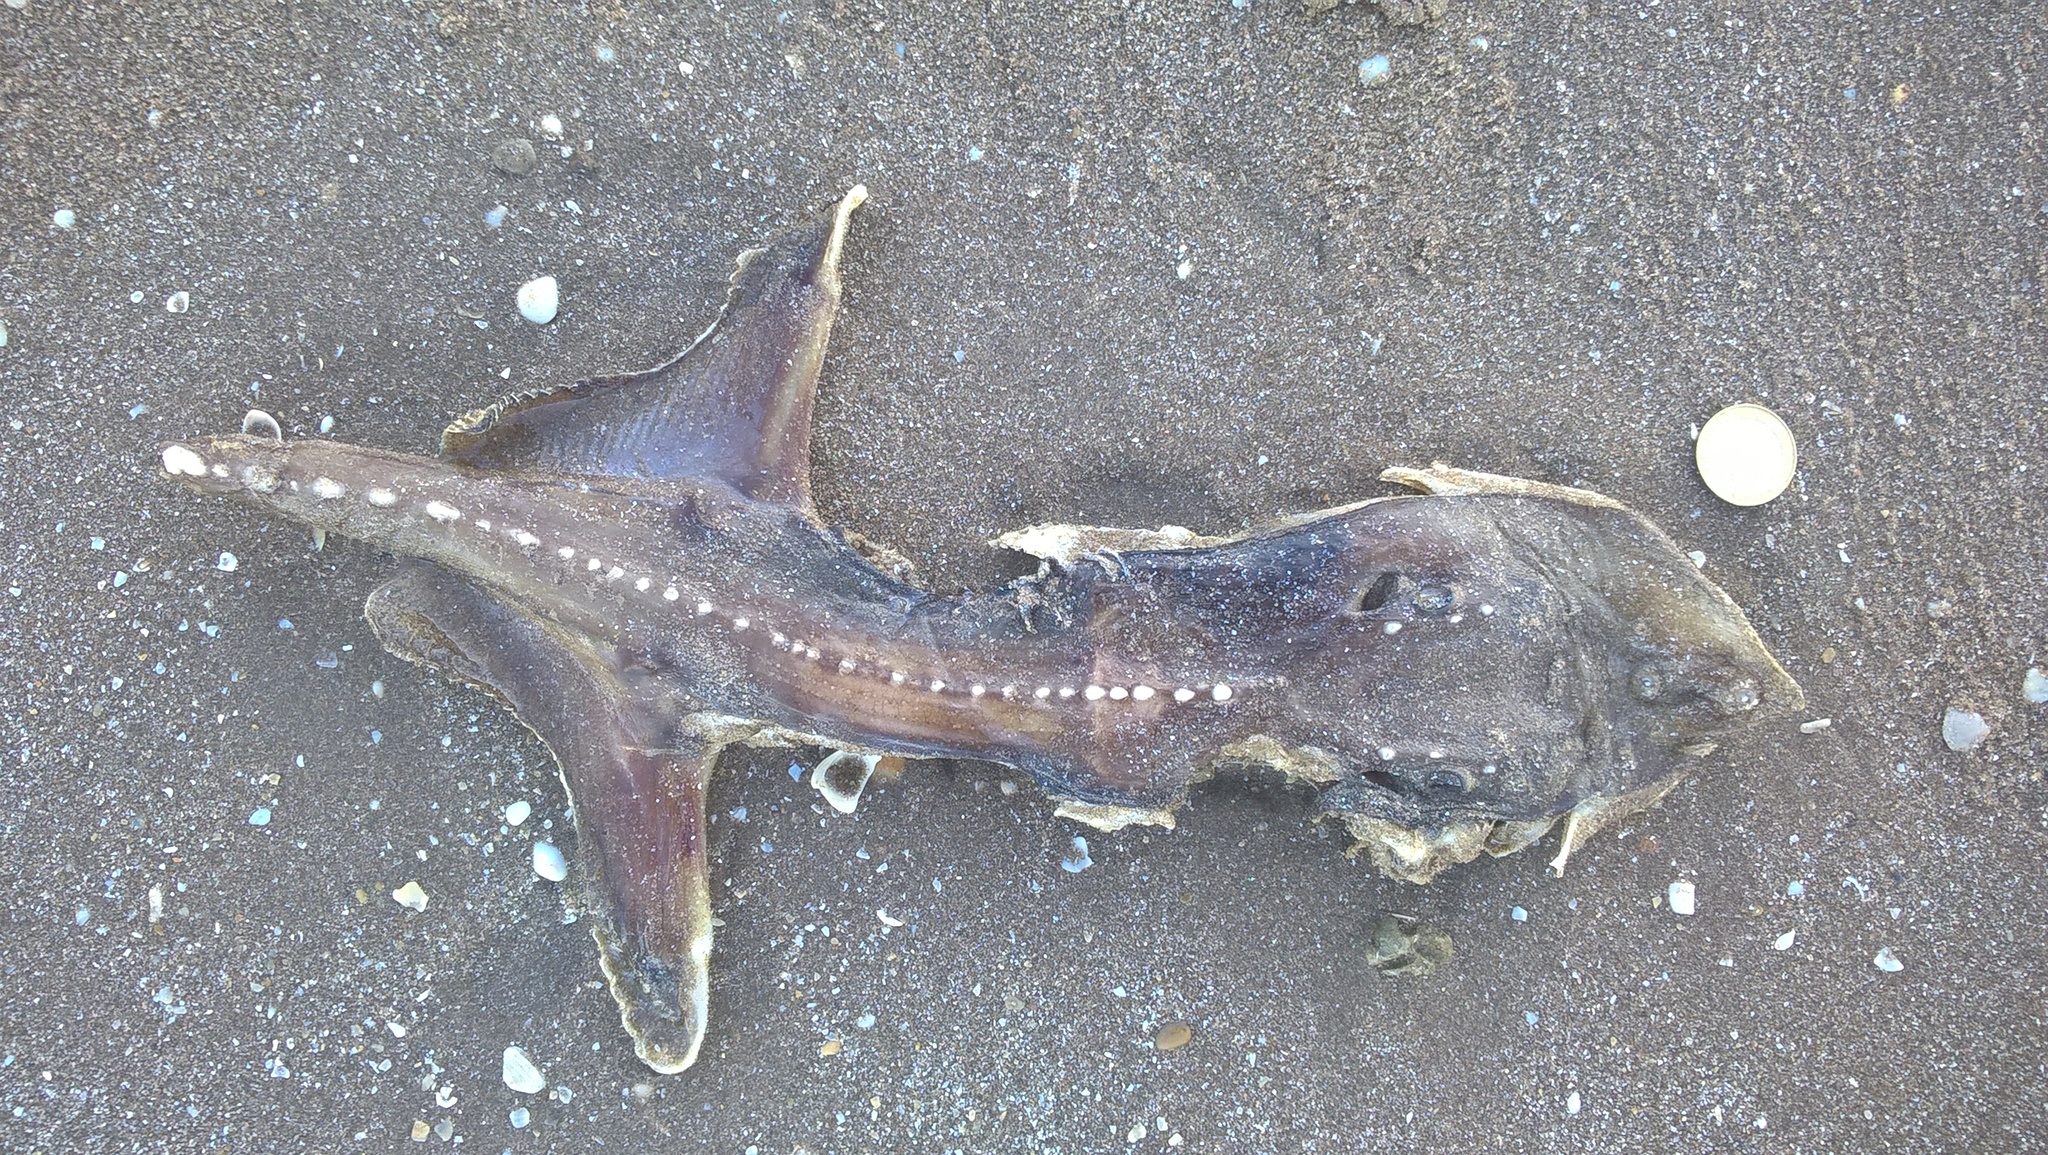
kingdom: Animalia
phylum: Chordata
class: Elasmobranchii
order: Rajiformes
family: Arhynchobatidae
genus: Sympterygia
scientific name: Sympterygia bonapartii
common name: Smallnose fanskate
